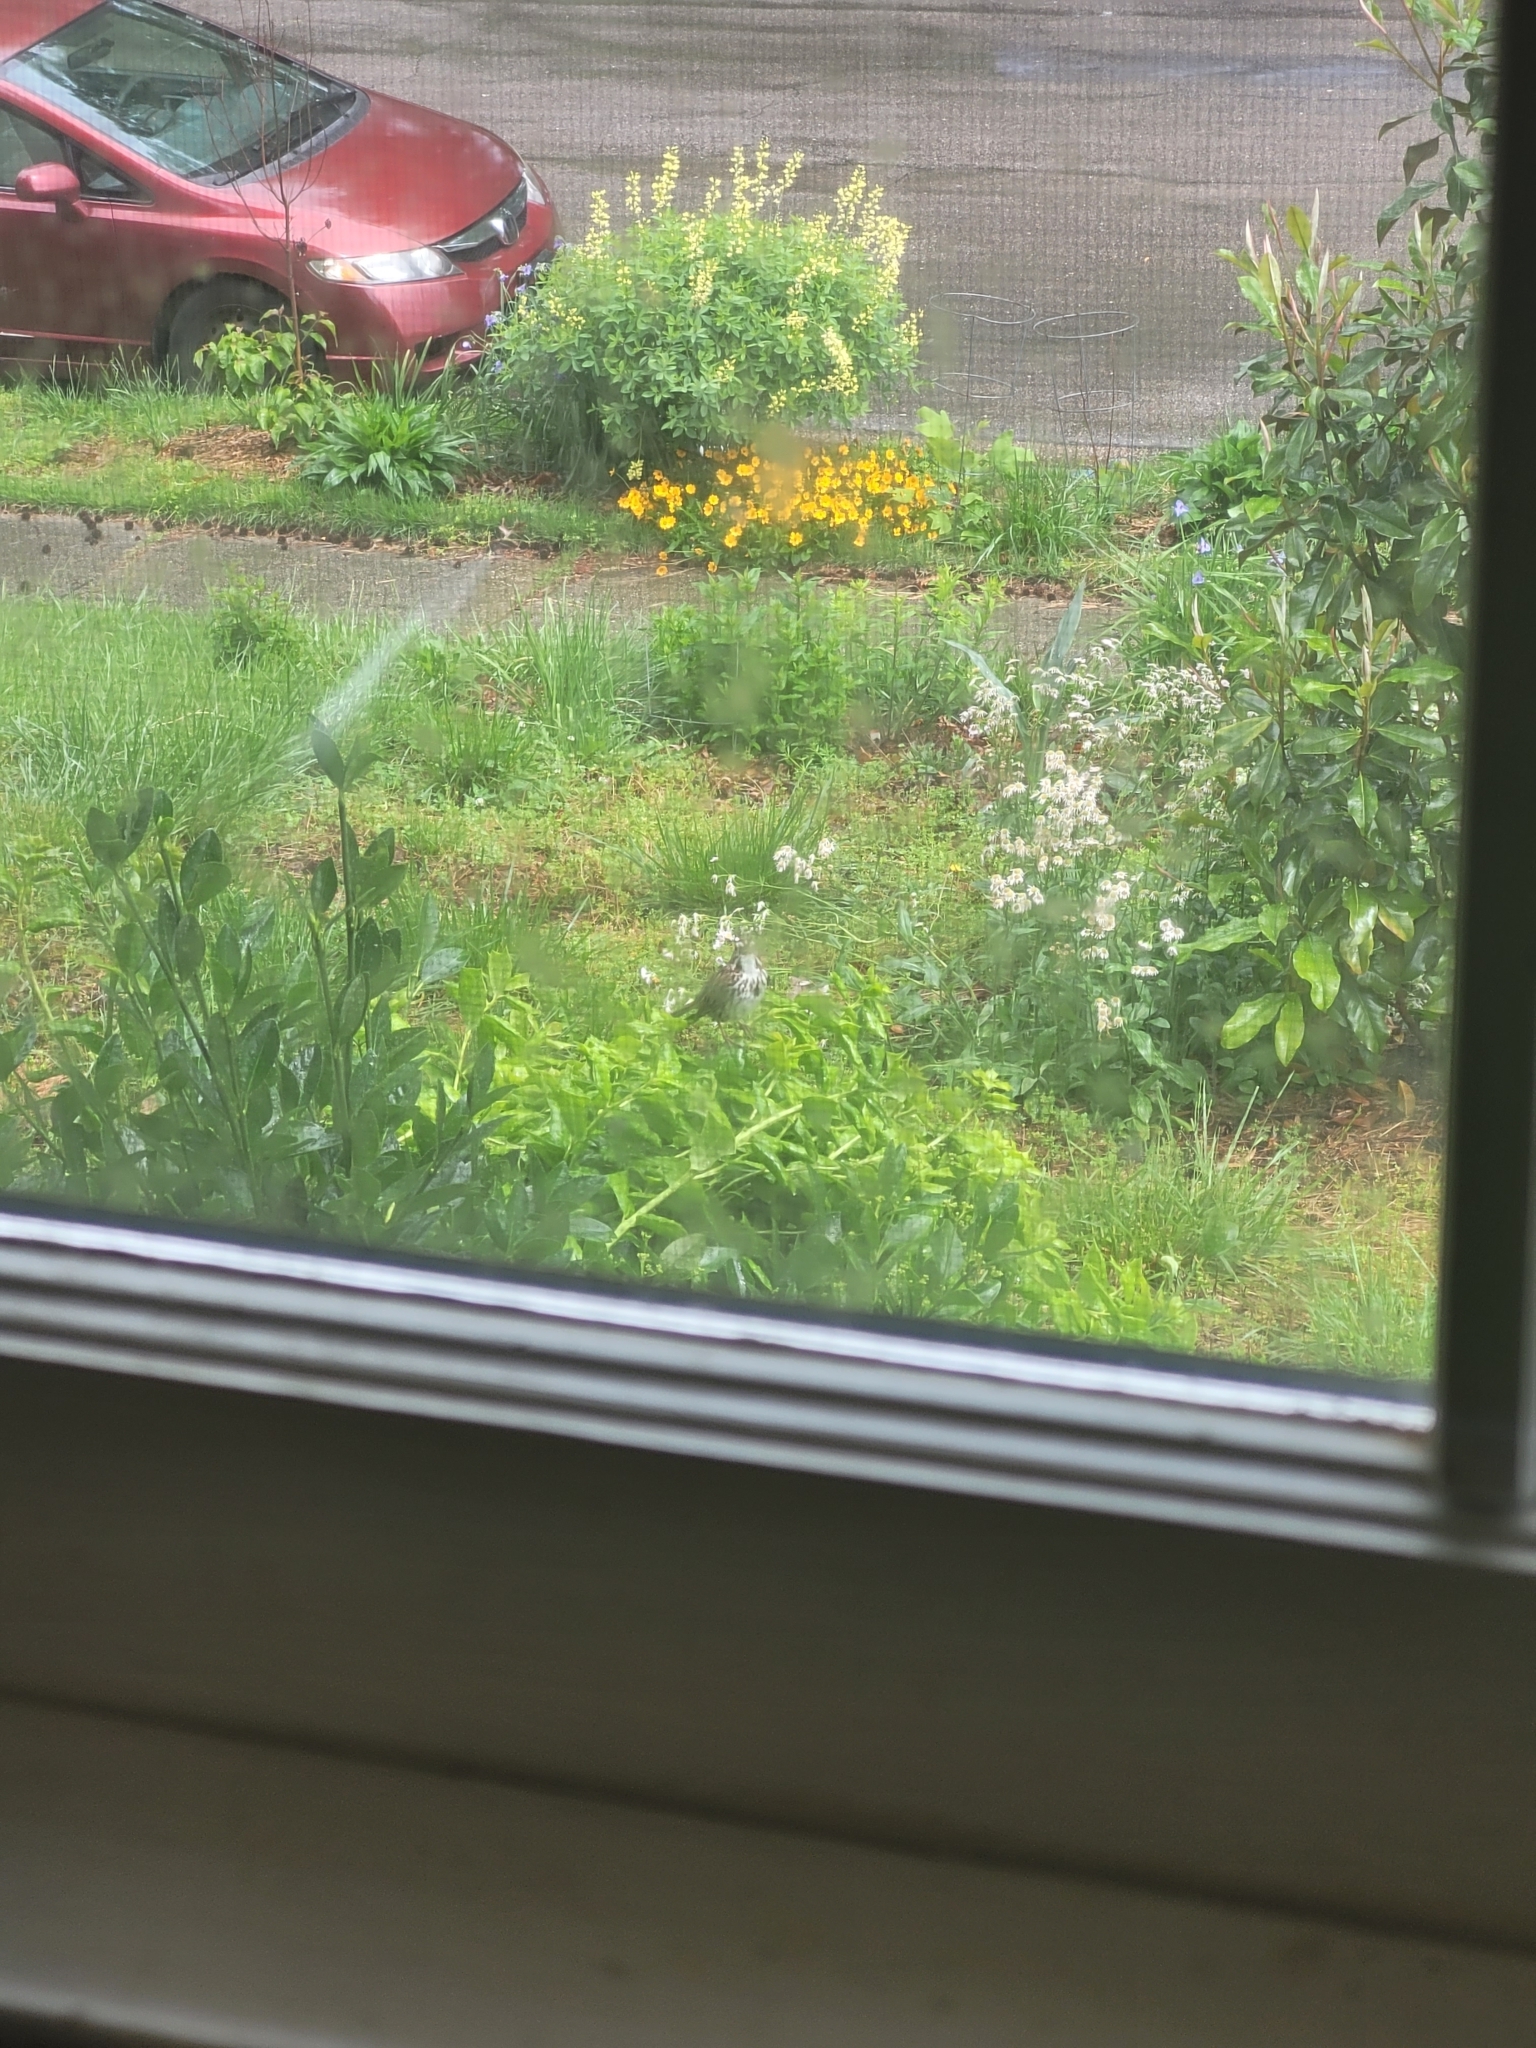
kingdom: Animalia
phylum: Chordata
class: Aves
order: Passeriformes
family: Passerellidae
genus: Melospiza
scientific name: Melospiza melodia
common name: Song sparrow
